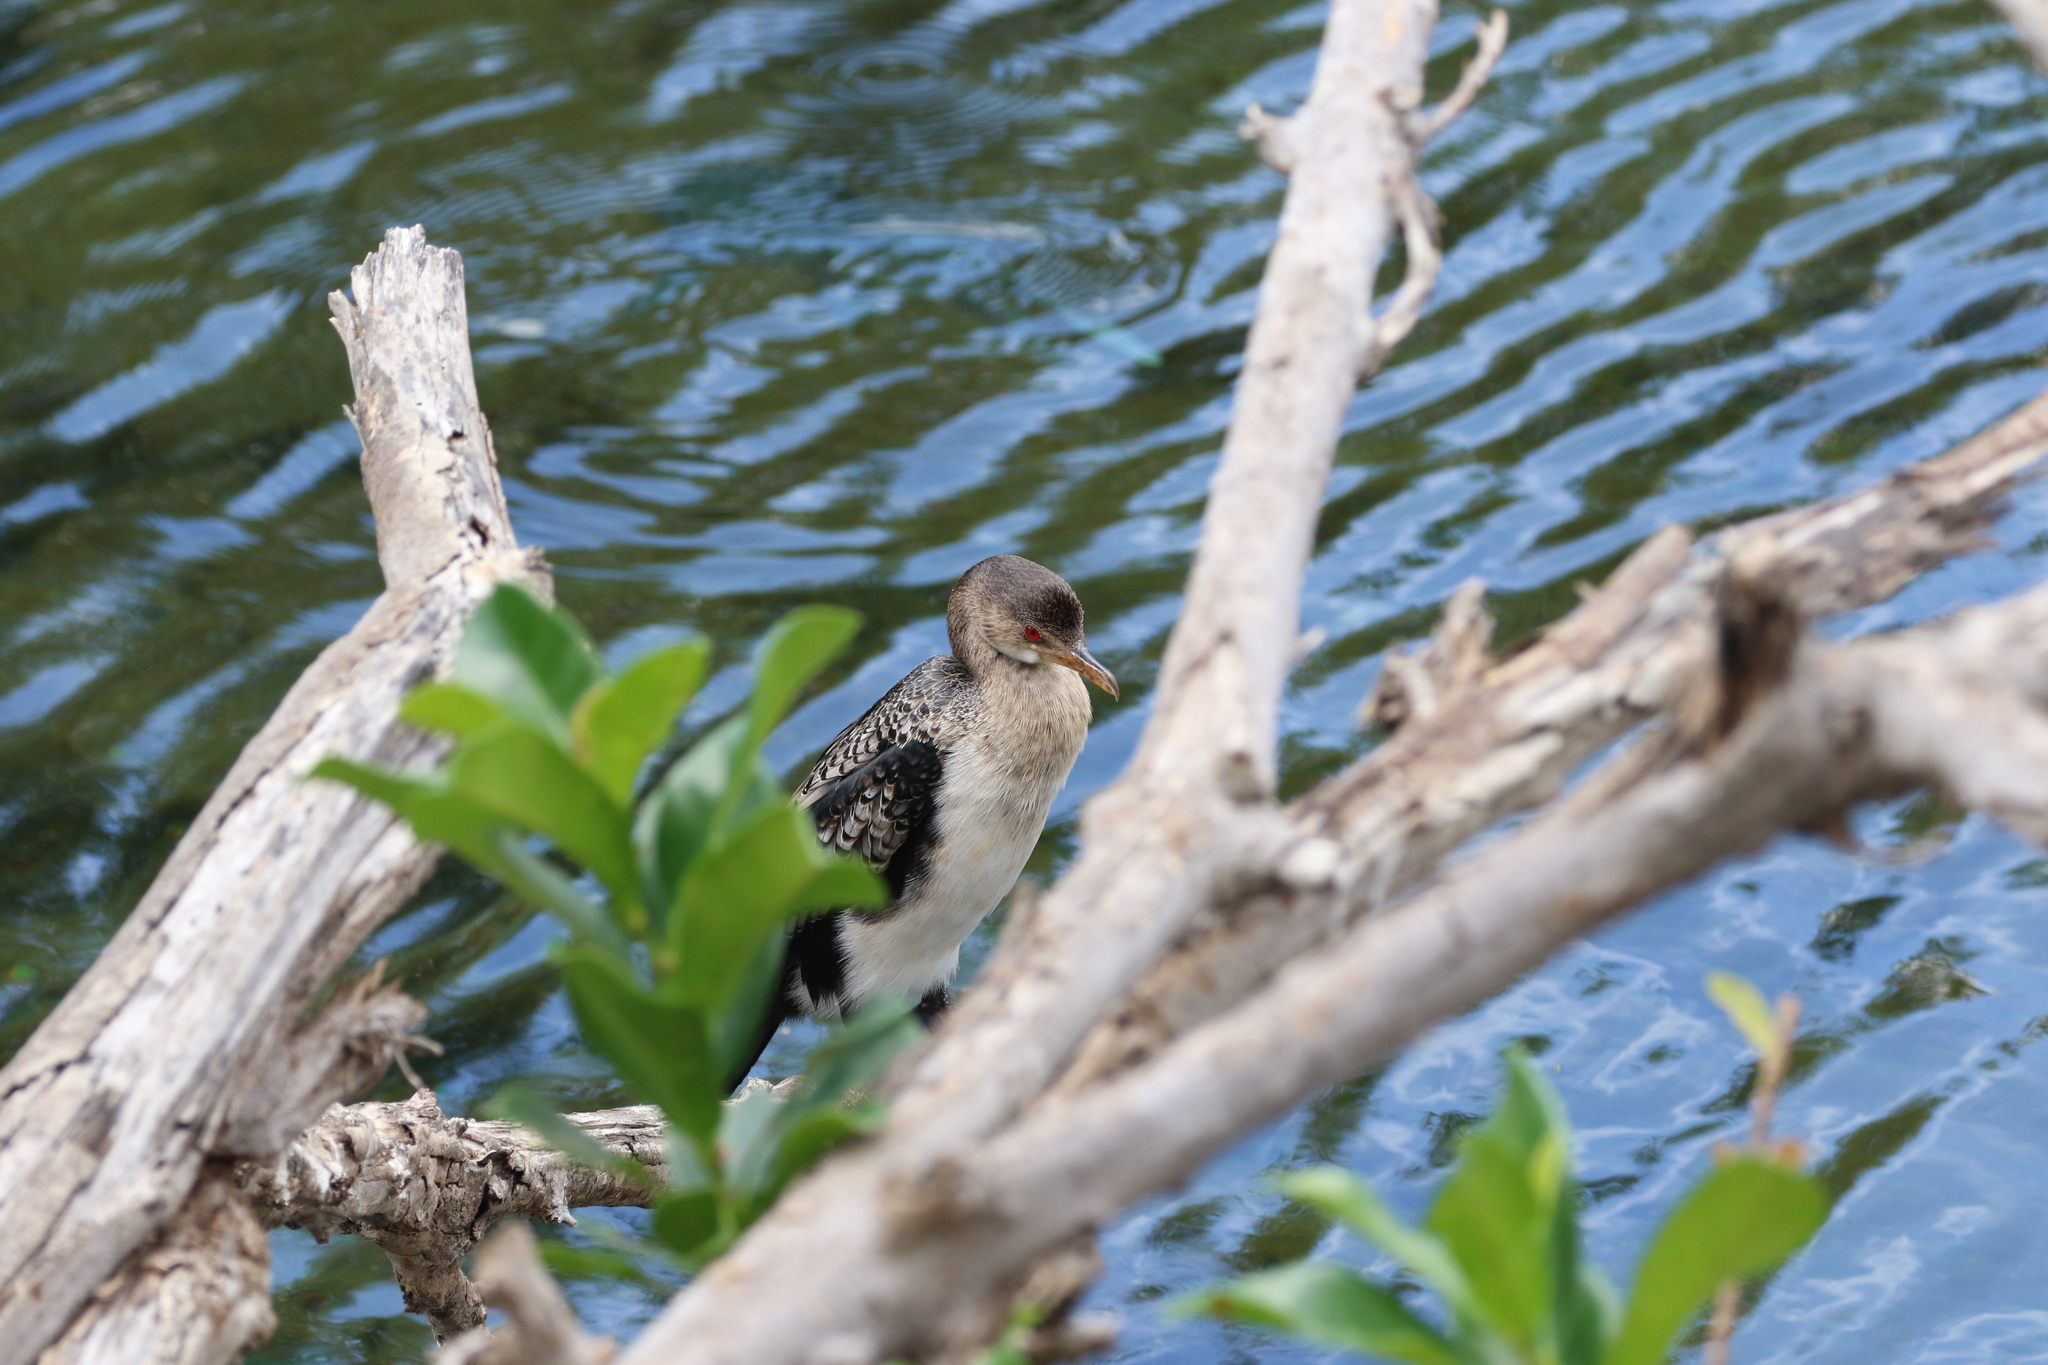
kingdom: Animalia
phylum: Chordata
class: Aves
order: Suliformes
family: Phalacrocoracidae
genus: Microcarbo
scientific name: Microcarbo africanus
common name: Long-tailed cormorant
